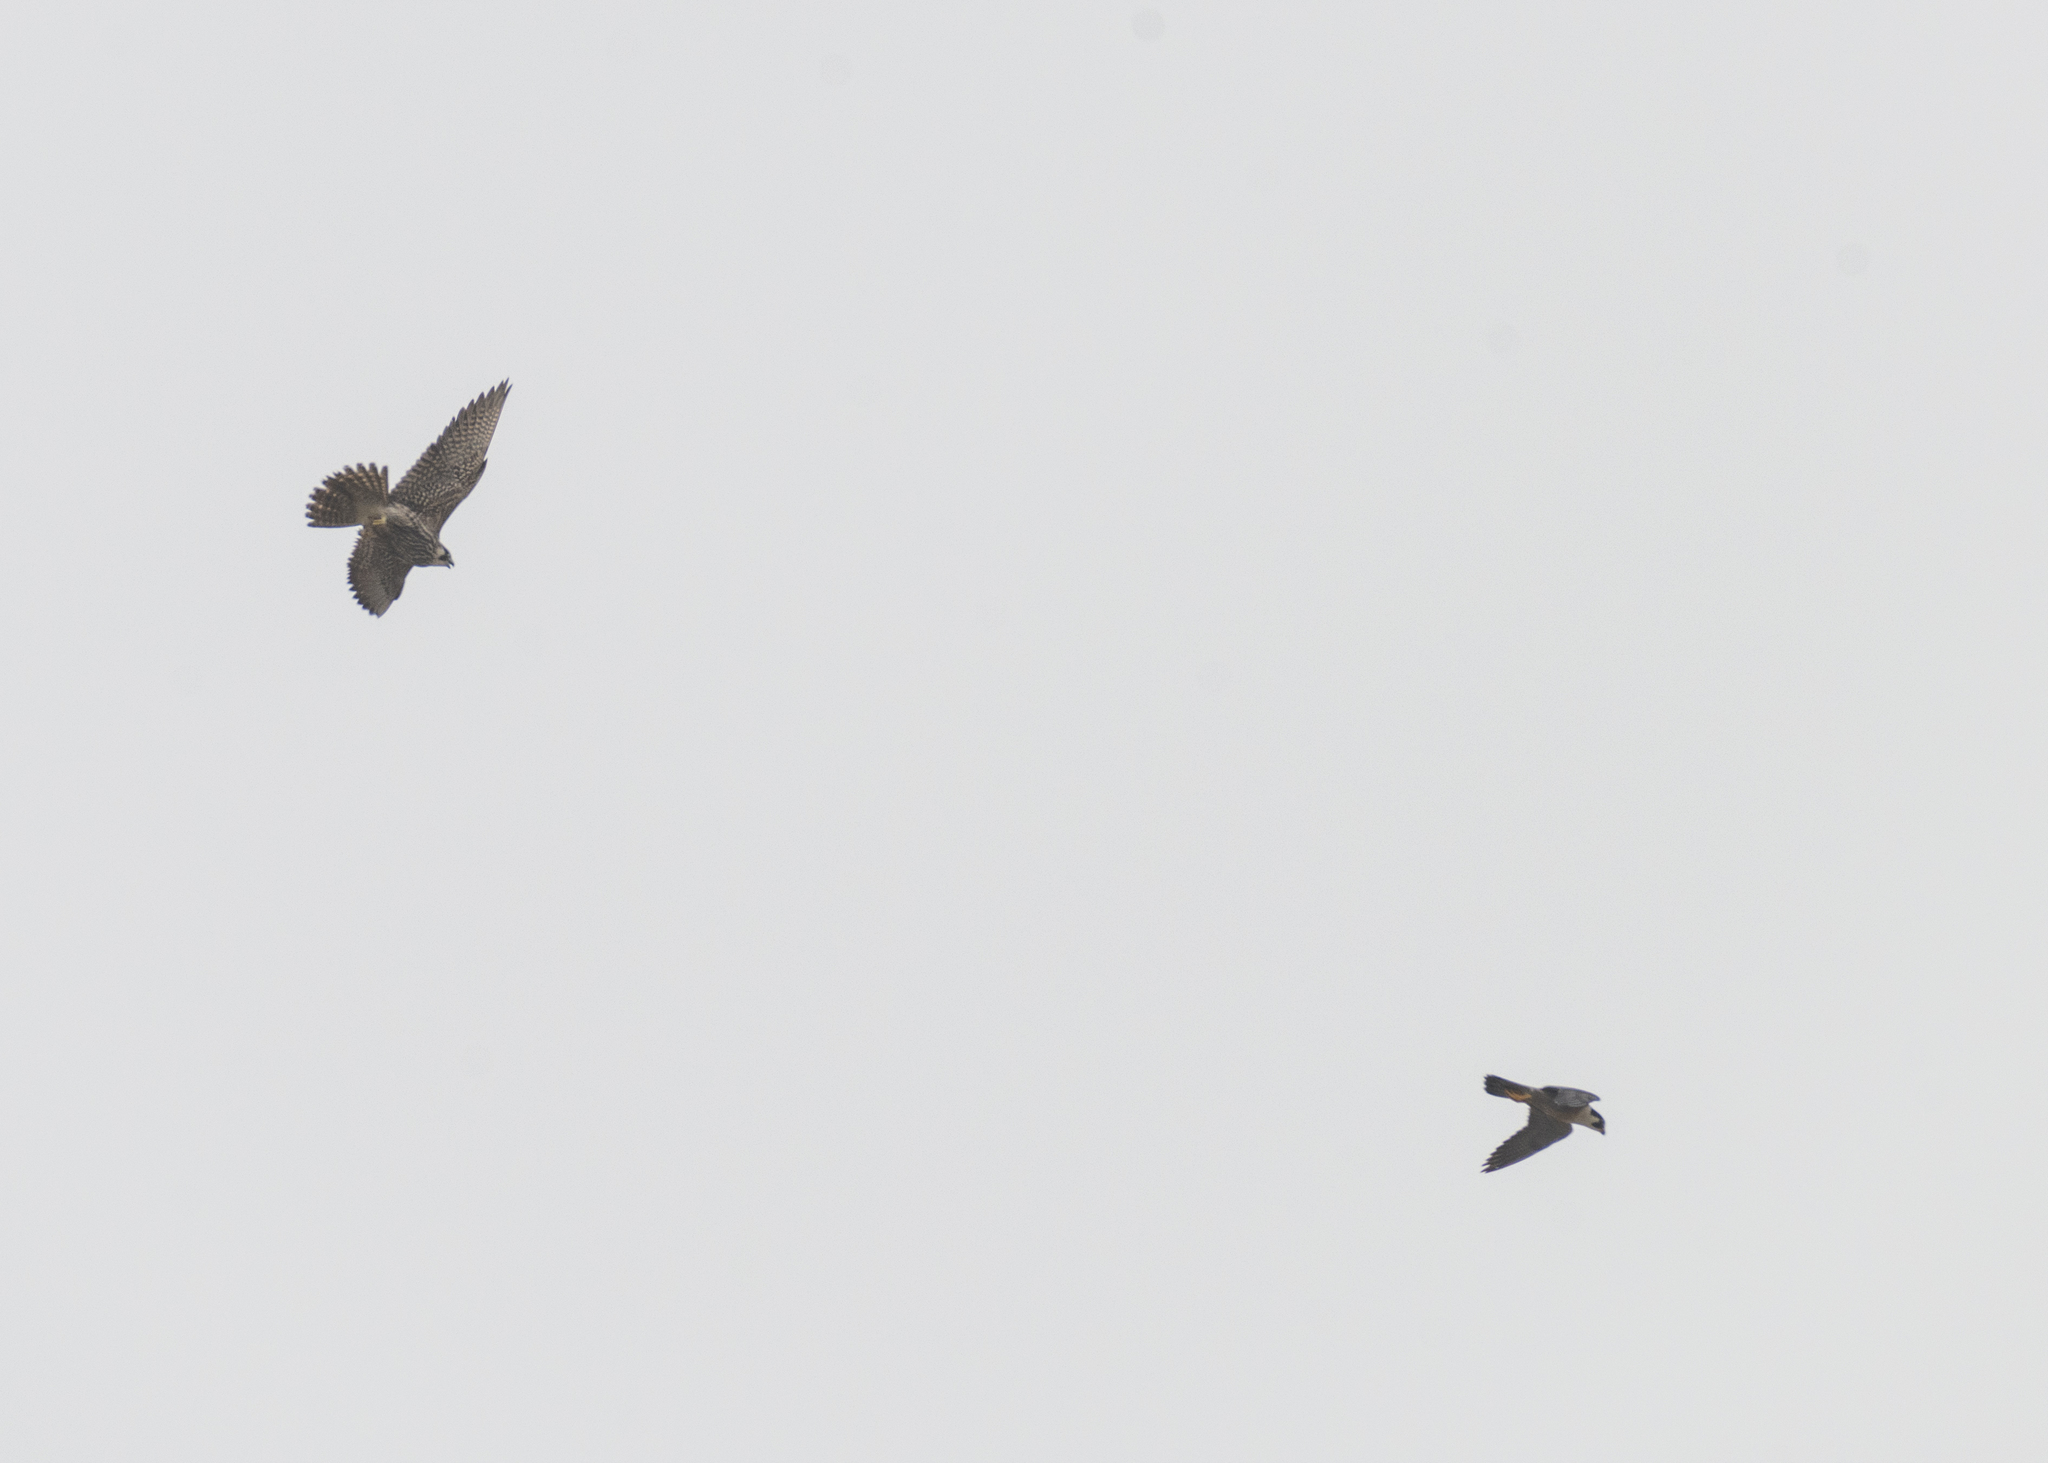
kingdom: Animalia
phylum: Chordata
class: Aves
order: Falconiformes
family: Falconidae
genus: Falco
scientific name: Falco peregrinus
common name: Peregrine falcon
